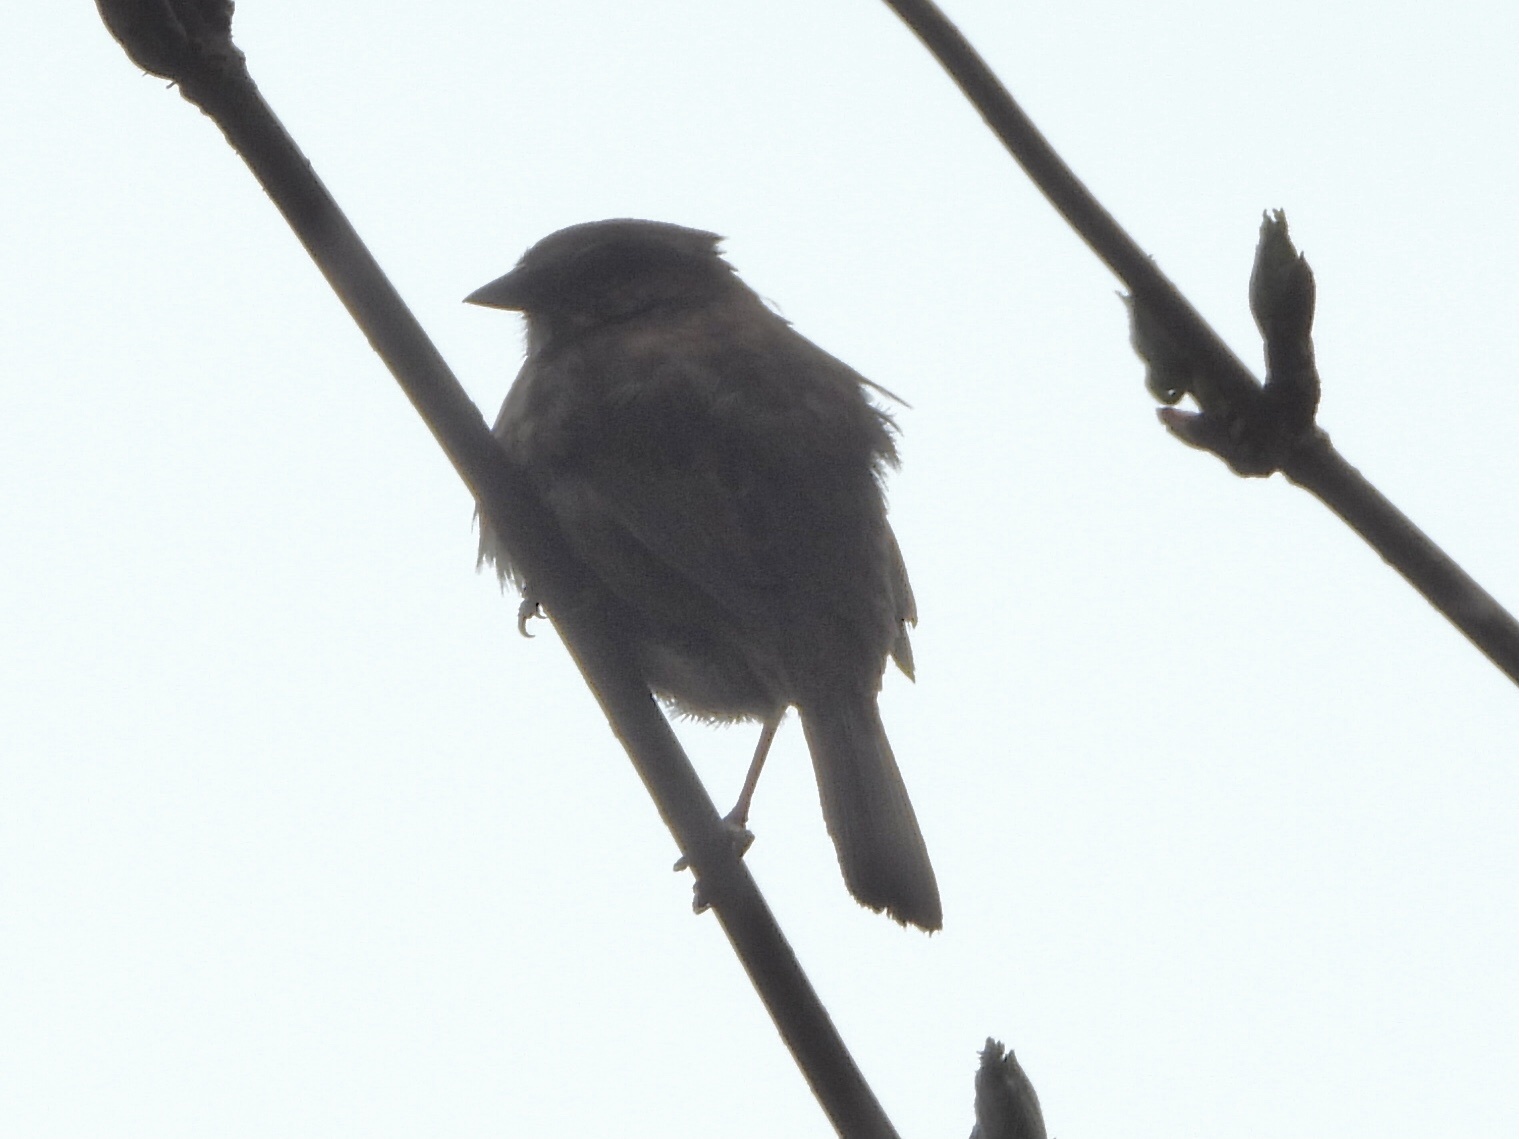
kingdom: Animalia
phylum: Chordata
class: Aves
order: Passeriformes
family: Passerellidae
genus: Melospiza
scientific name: Melospiza melodia
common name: Song sparrow
